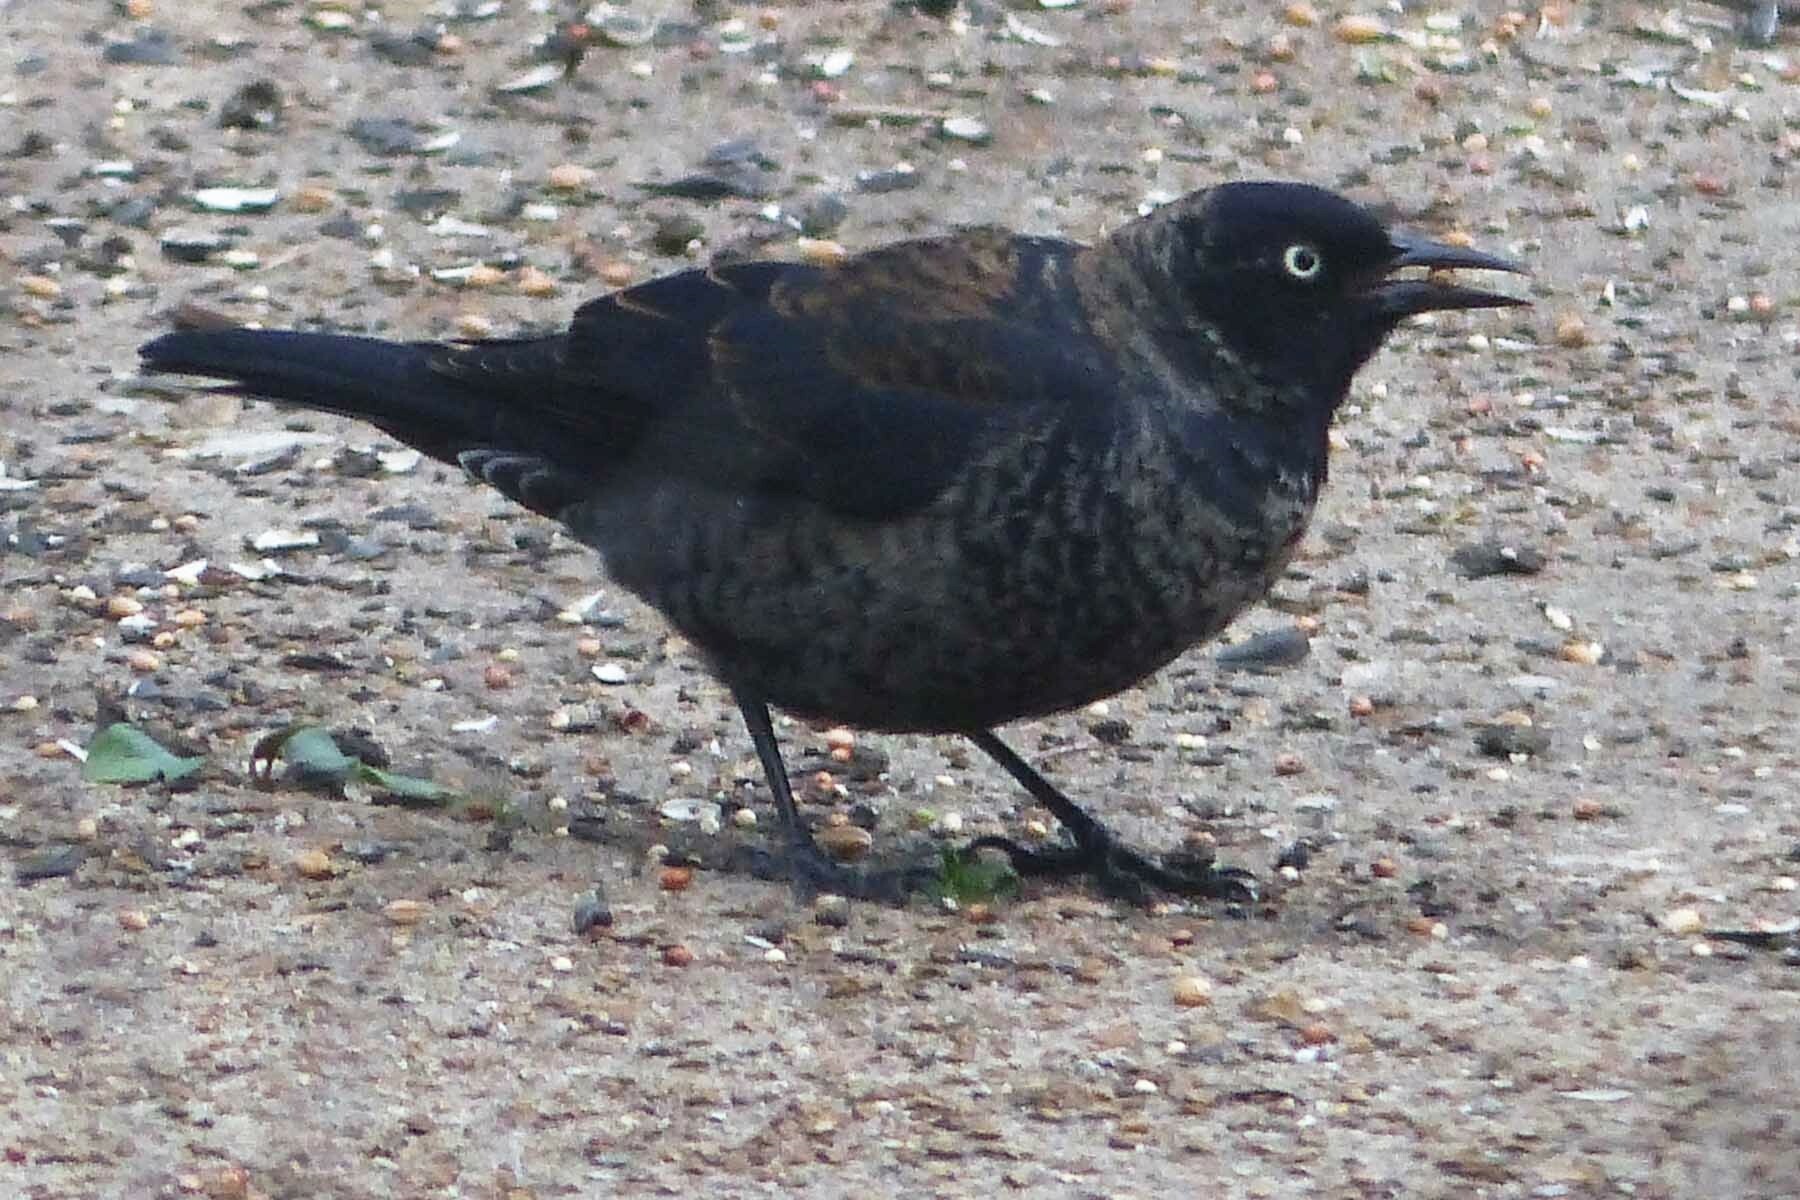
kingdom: Animalia
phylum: Chordata
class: Aves
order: Passeriformes
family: Icteridae
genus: Euphagus
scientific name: Euphagus carolinus
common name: Rusty blackbird
